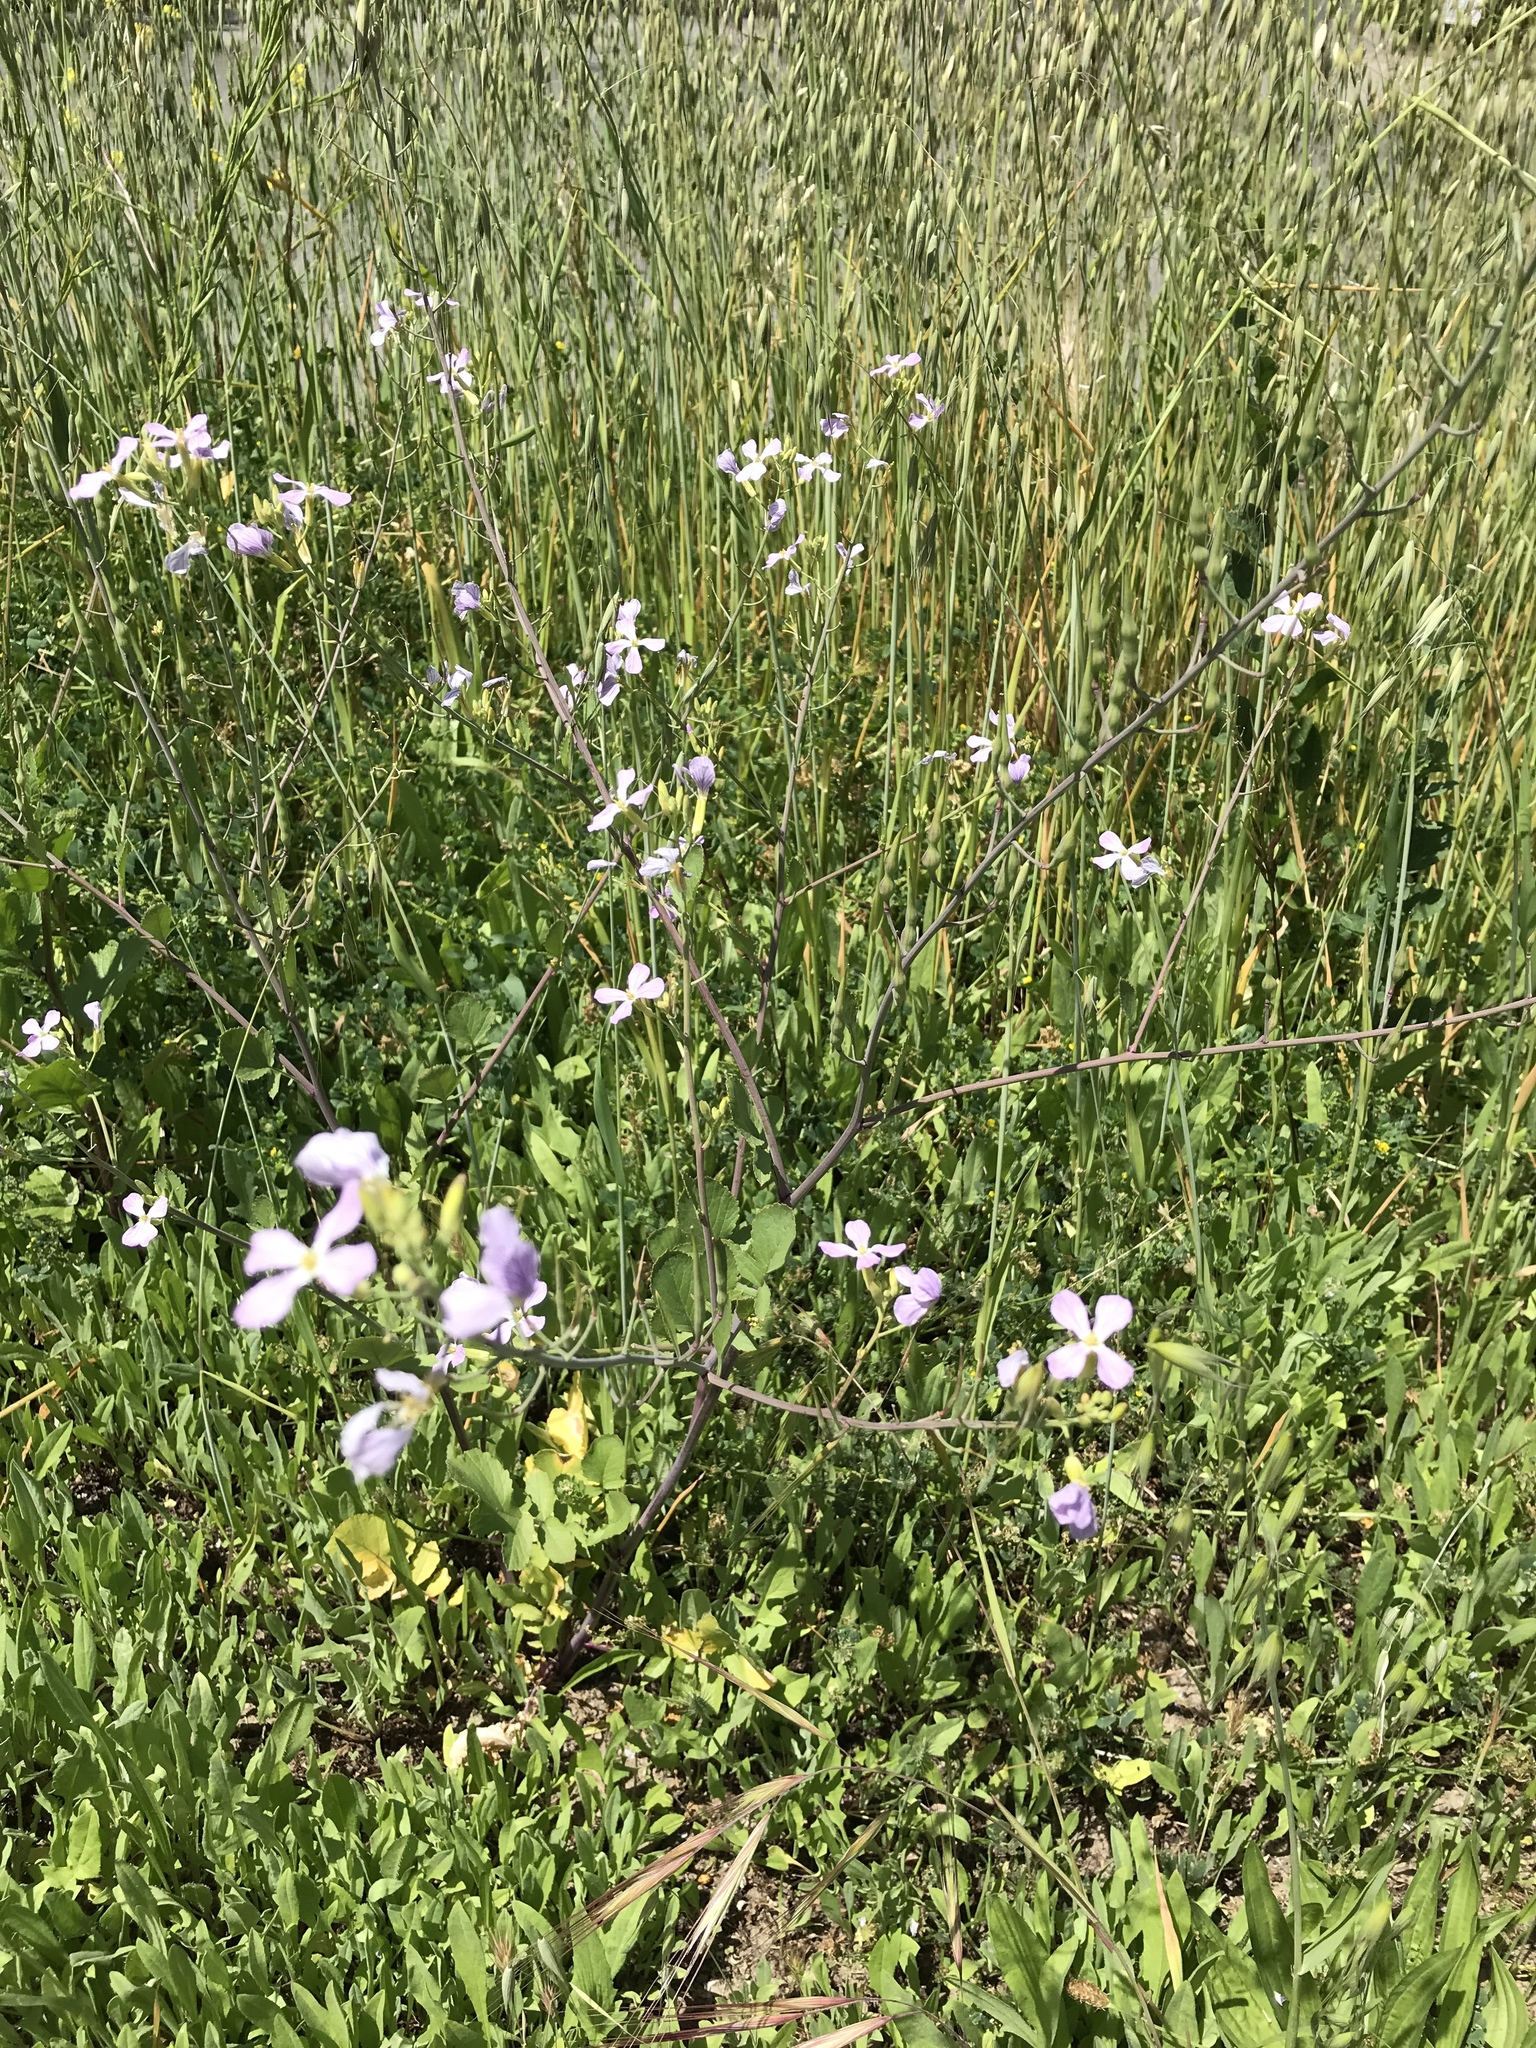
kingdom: Plantae
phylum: Tracheophyta
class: Magnoliopsida
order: Brassicales
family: Brassicaceae
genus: Raphanus
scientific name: Raphanus sativus
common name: Cultivated radish
